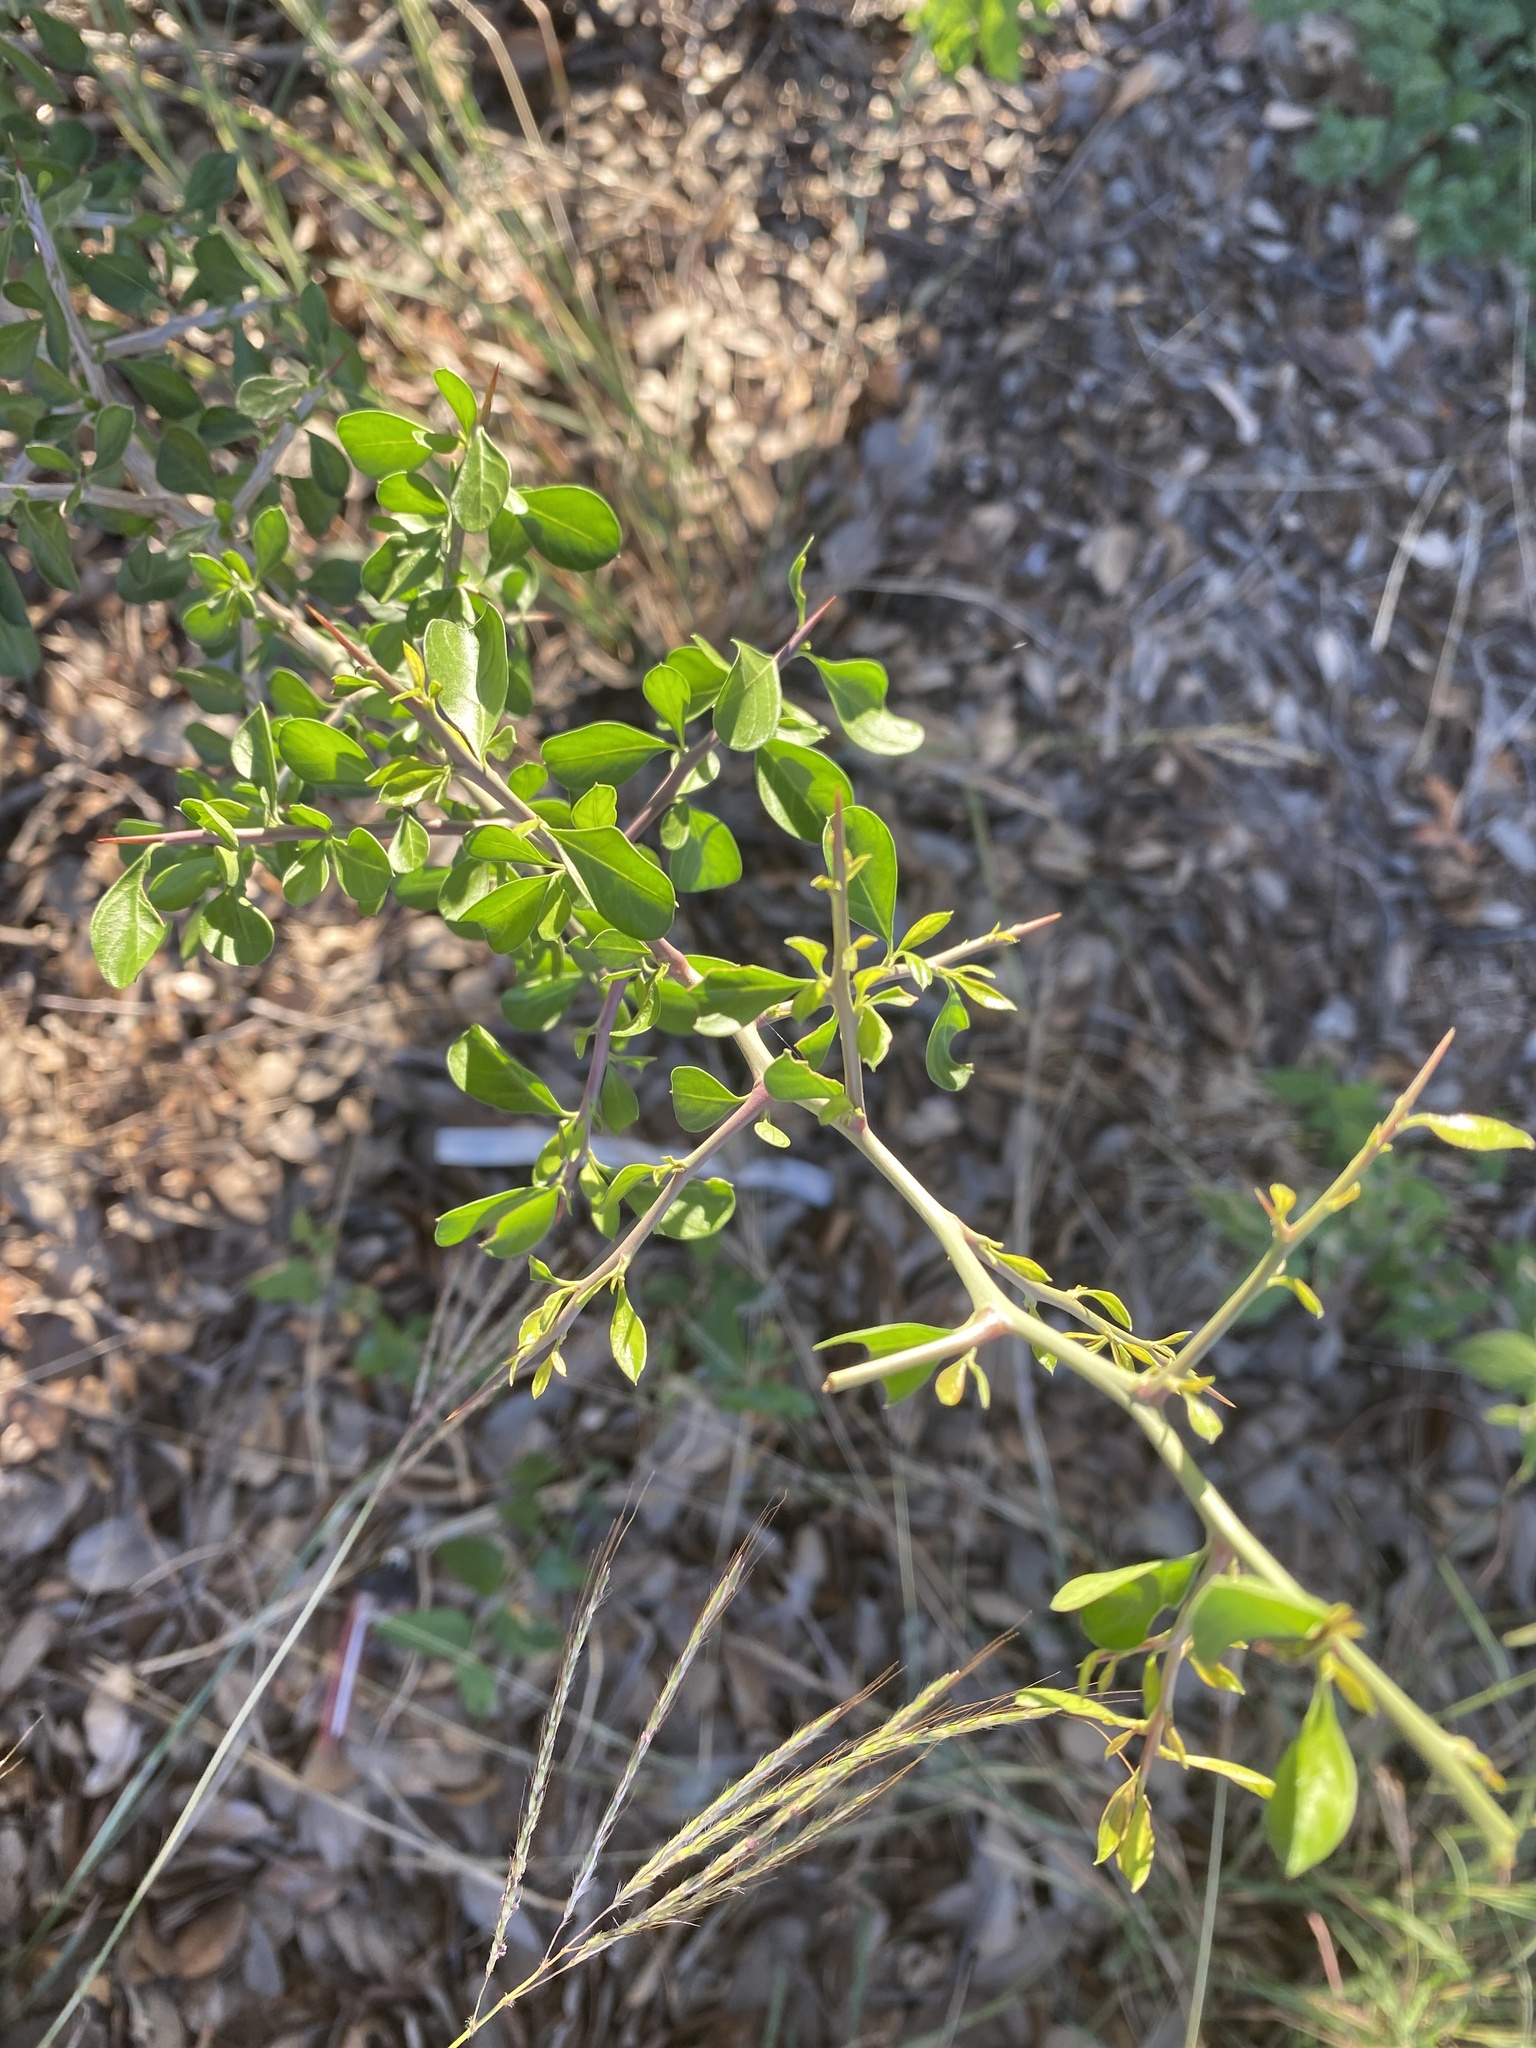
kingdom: Plantae
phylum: Tracheophyta
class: Magnoliopsida
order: Rosales
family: Rhamnaceae
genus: Condalia
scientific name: Condalia hookeri
